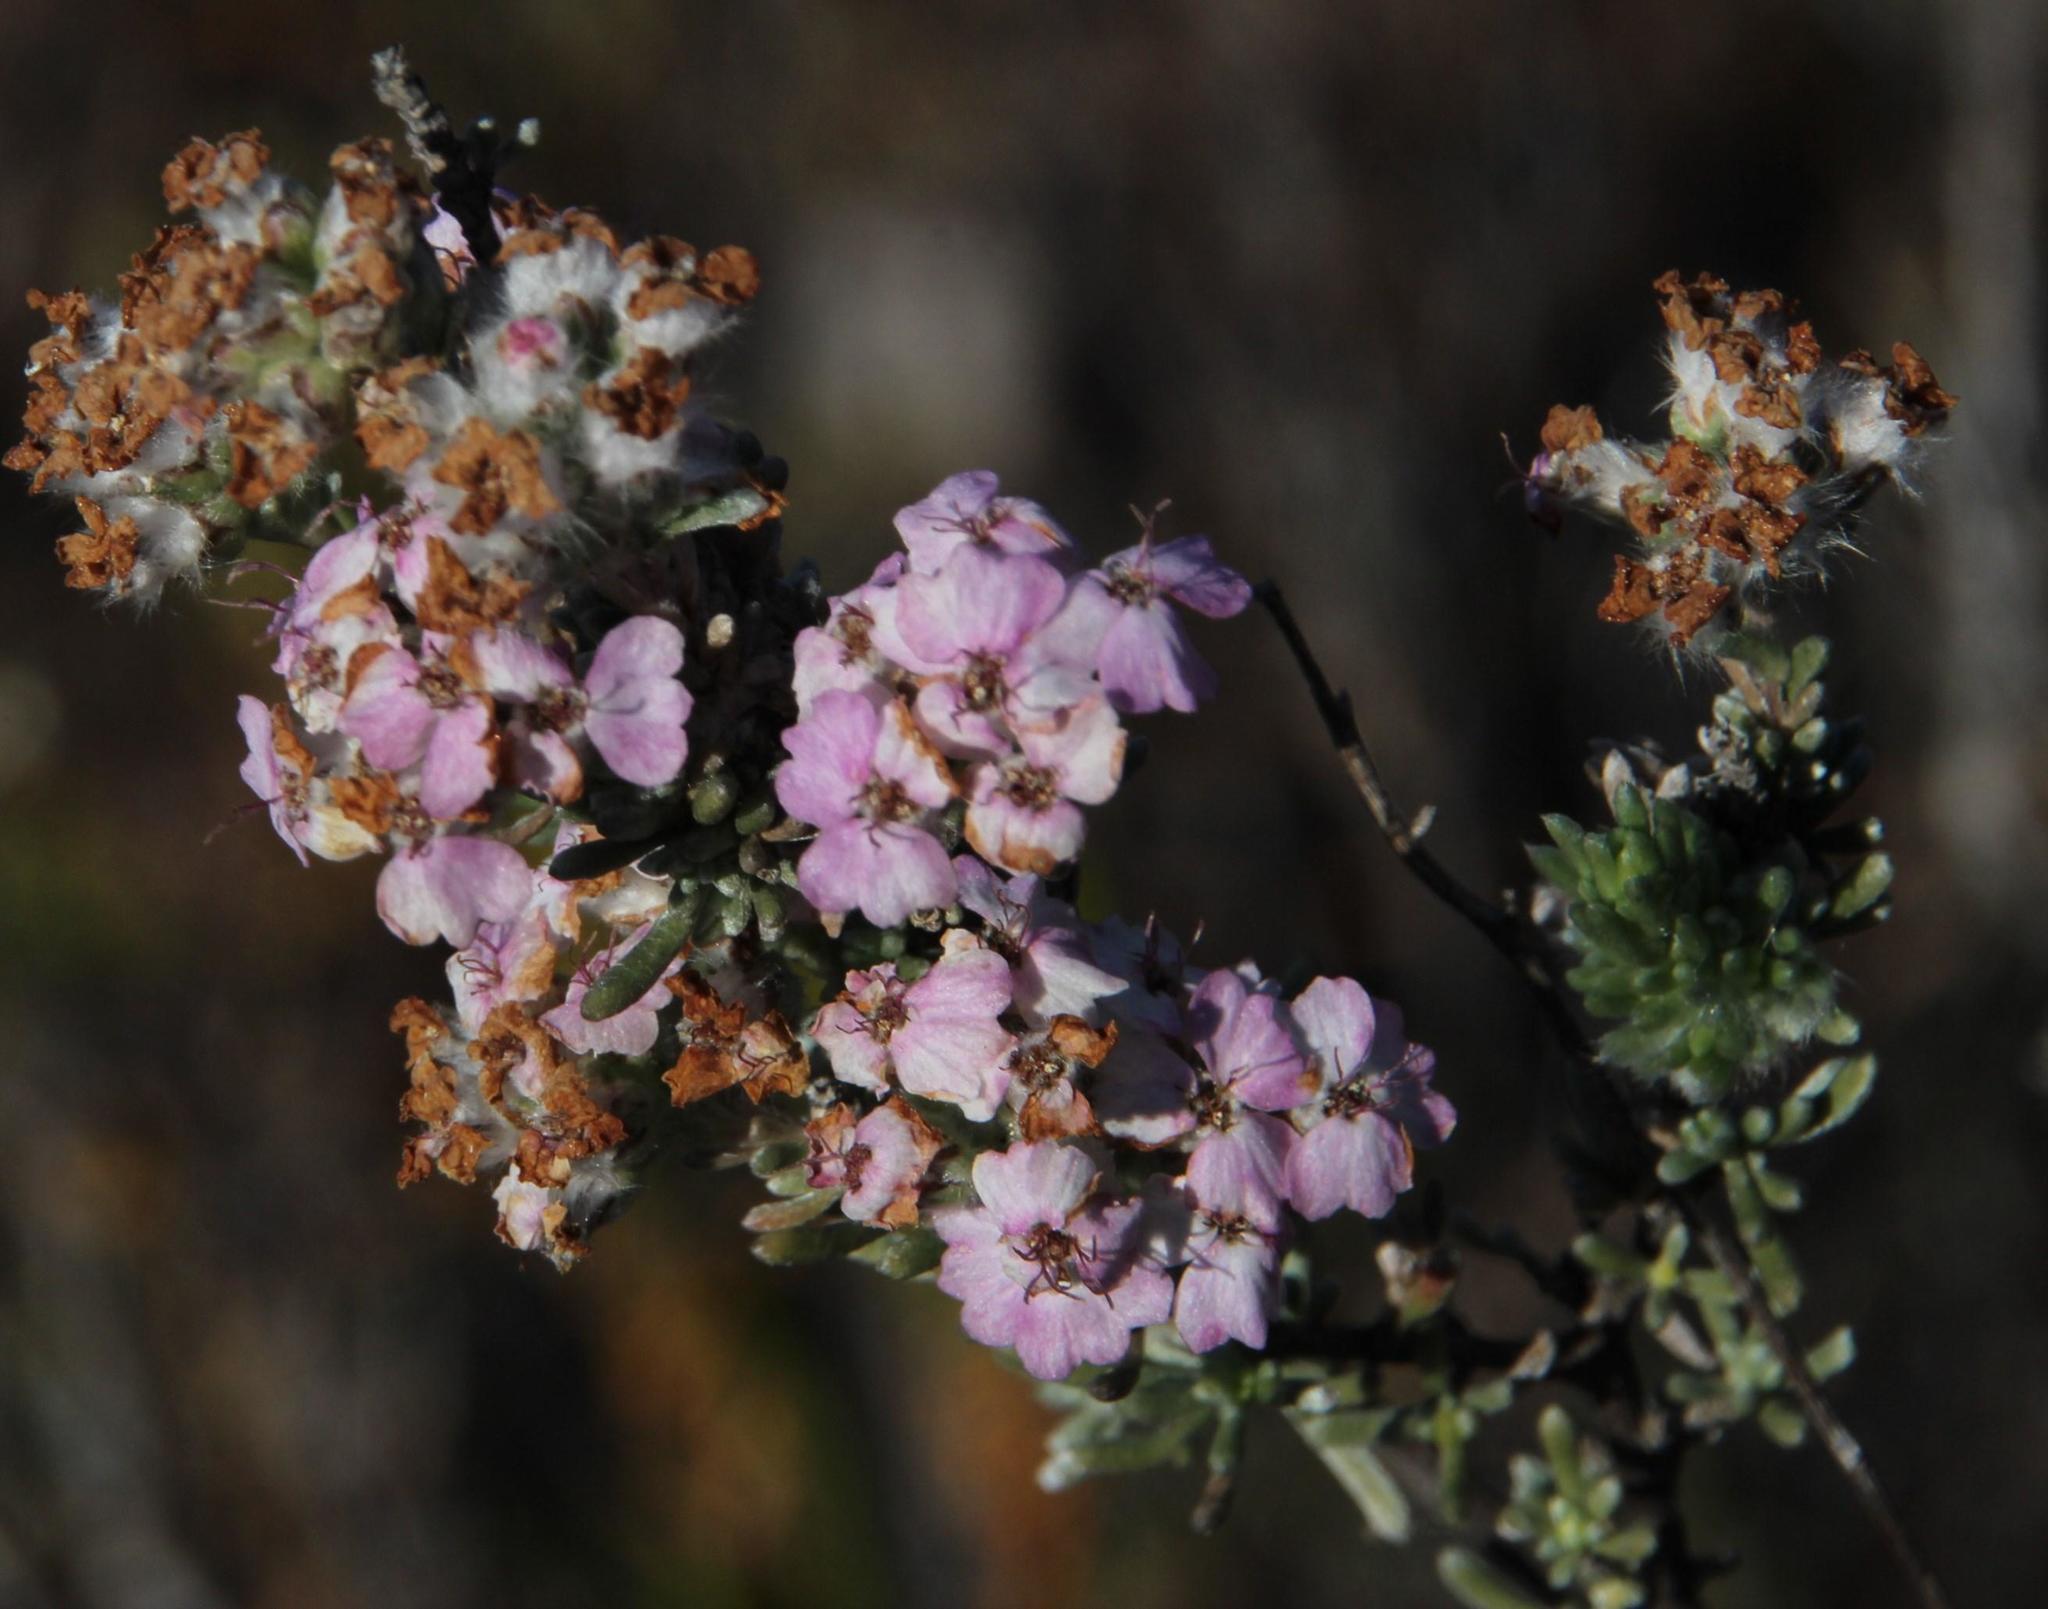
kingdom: Plantae
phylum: Tracheophyta
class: Magnoliopsida
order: Asterales
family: Asteraceae
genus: Eriocephalus
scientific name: Eriocephalus africanus
